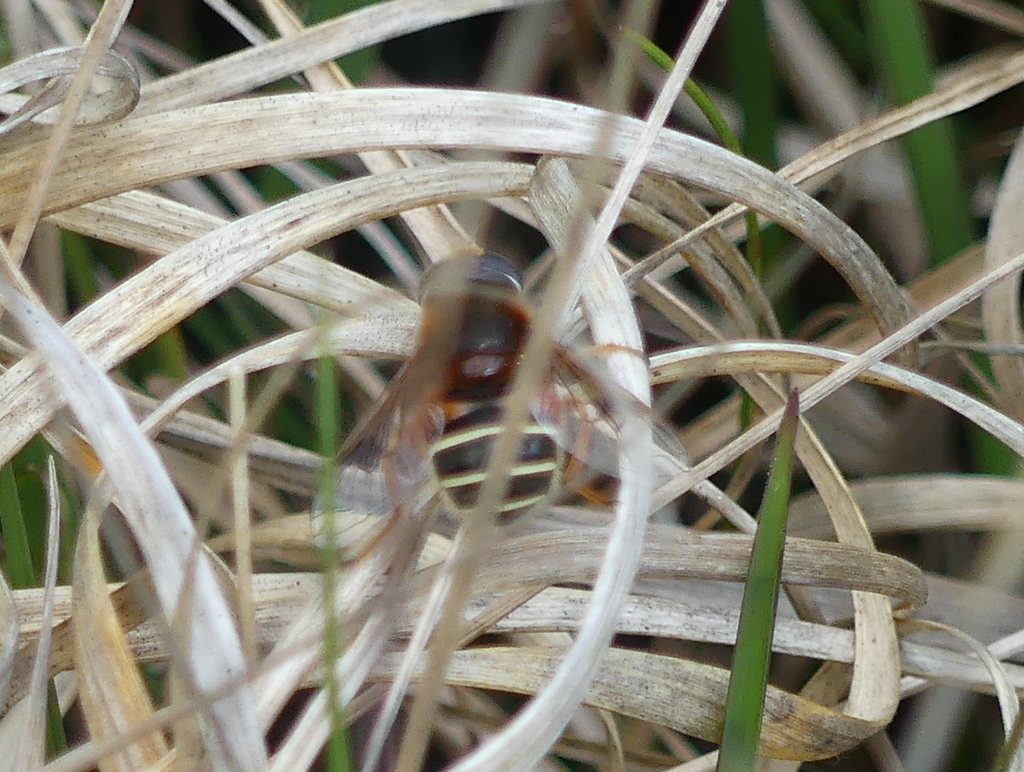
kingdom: Animalia
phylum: Arthropoda
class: Insecta
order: Diptera
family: Syrphidae
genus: Eristalis
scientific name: Eristalis cryptarum
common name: Bog hoverfly
